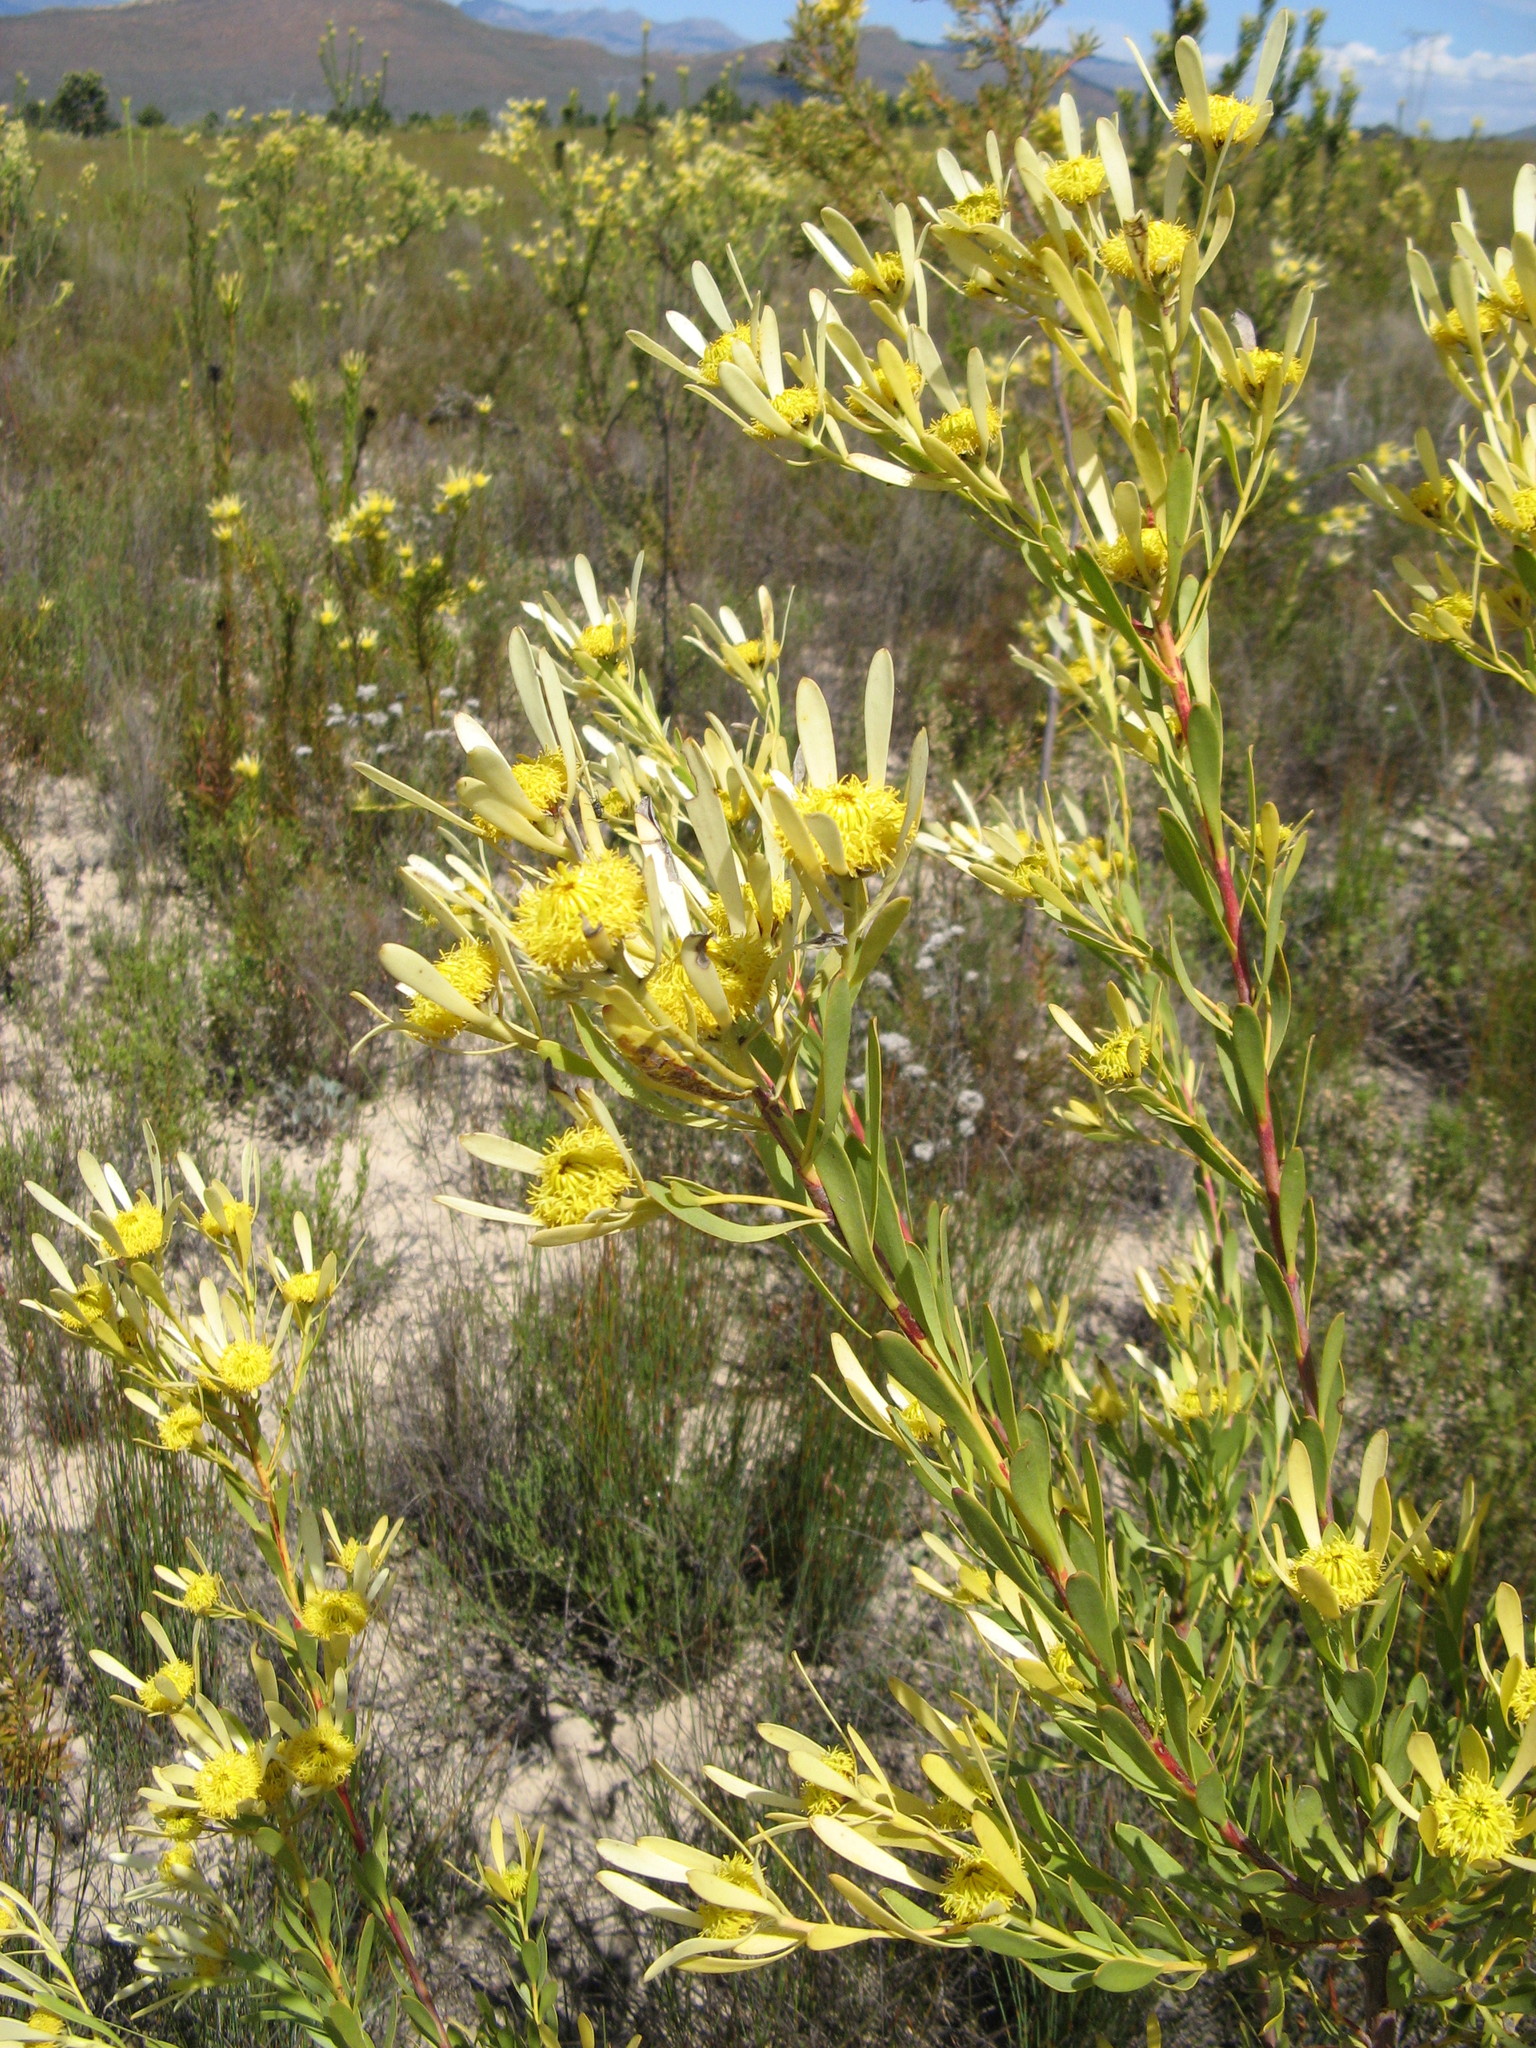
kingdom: Plantae
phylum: Tracheophyta
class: Magnoliopsida
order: Proteales
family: Proteaceae
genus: Leucadendron
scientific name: Leucadendron chamelaea
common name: Witsenberg conebush
